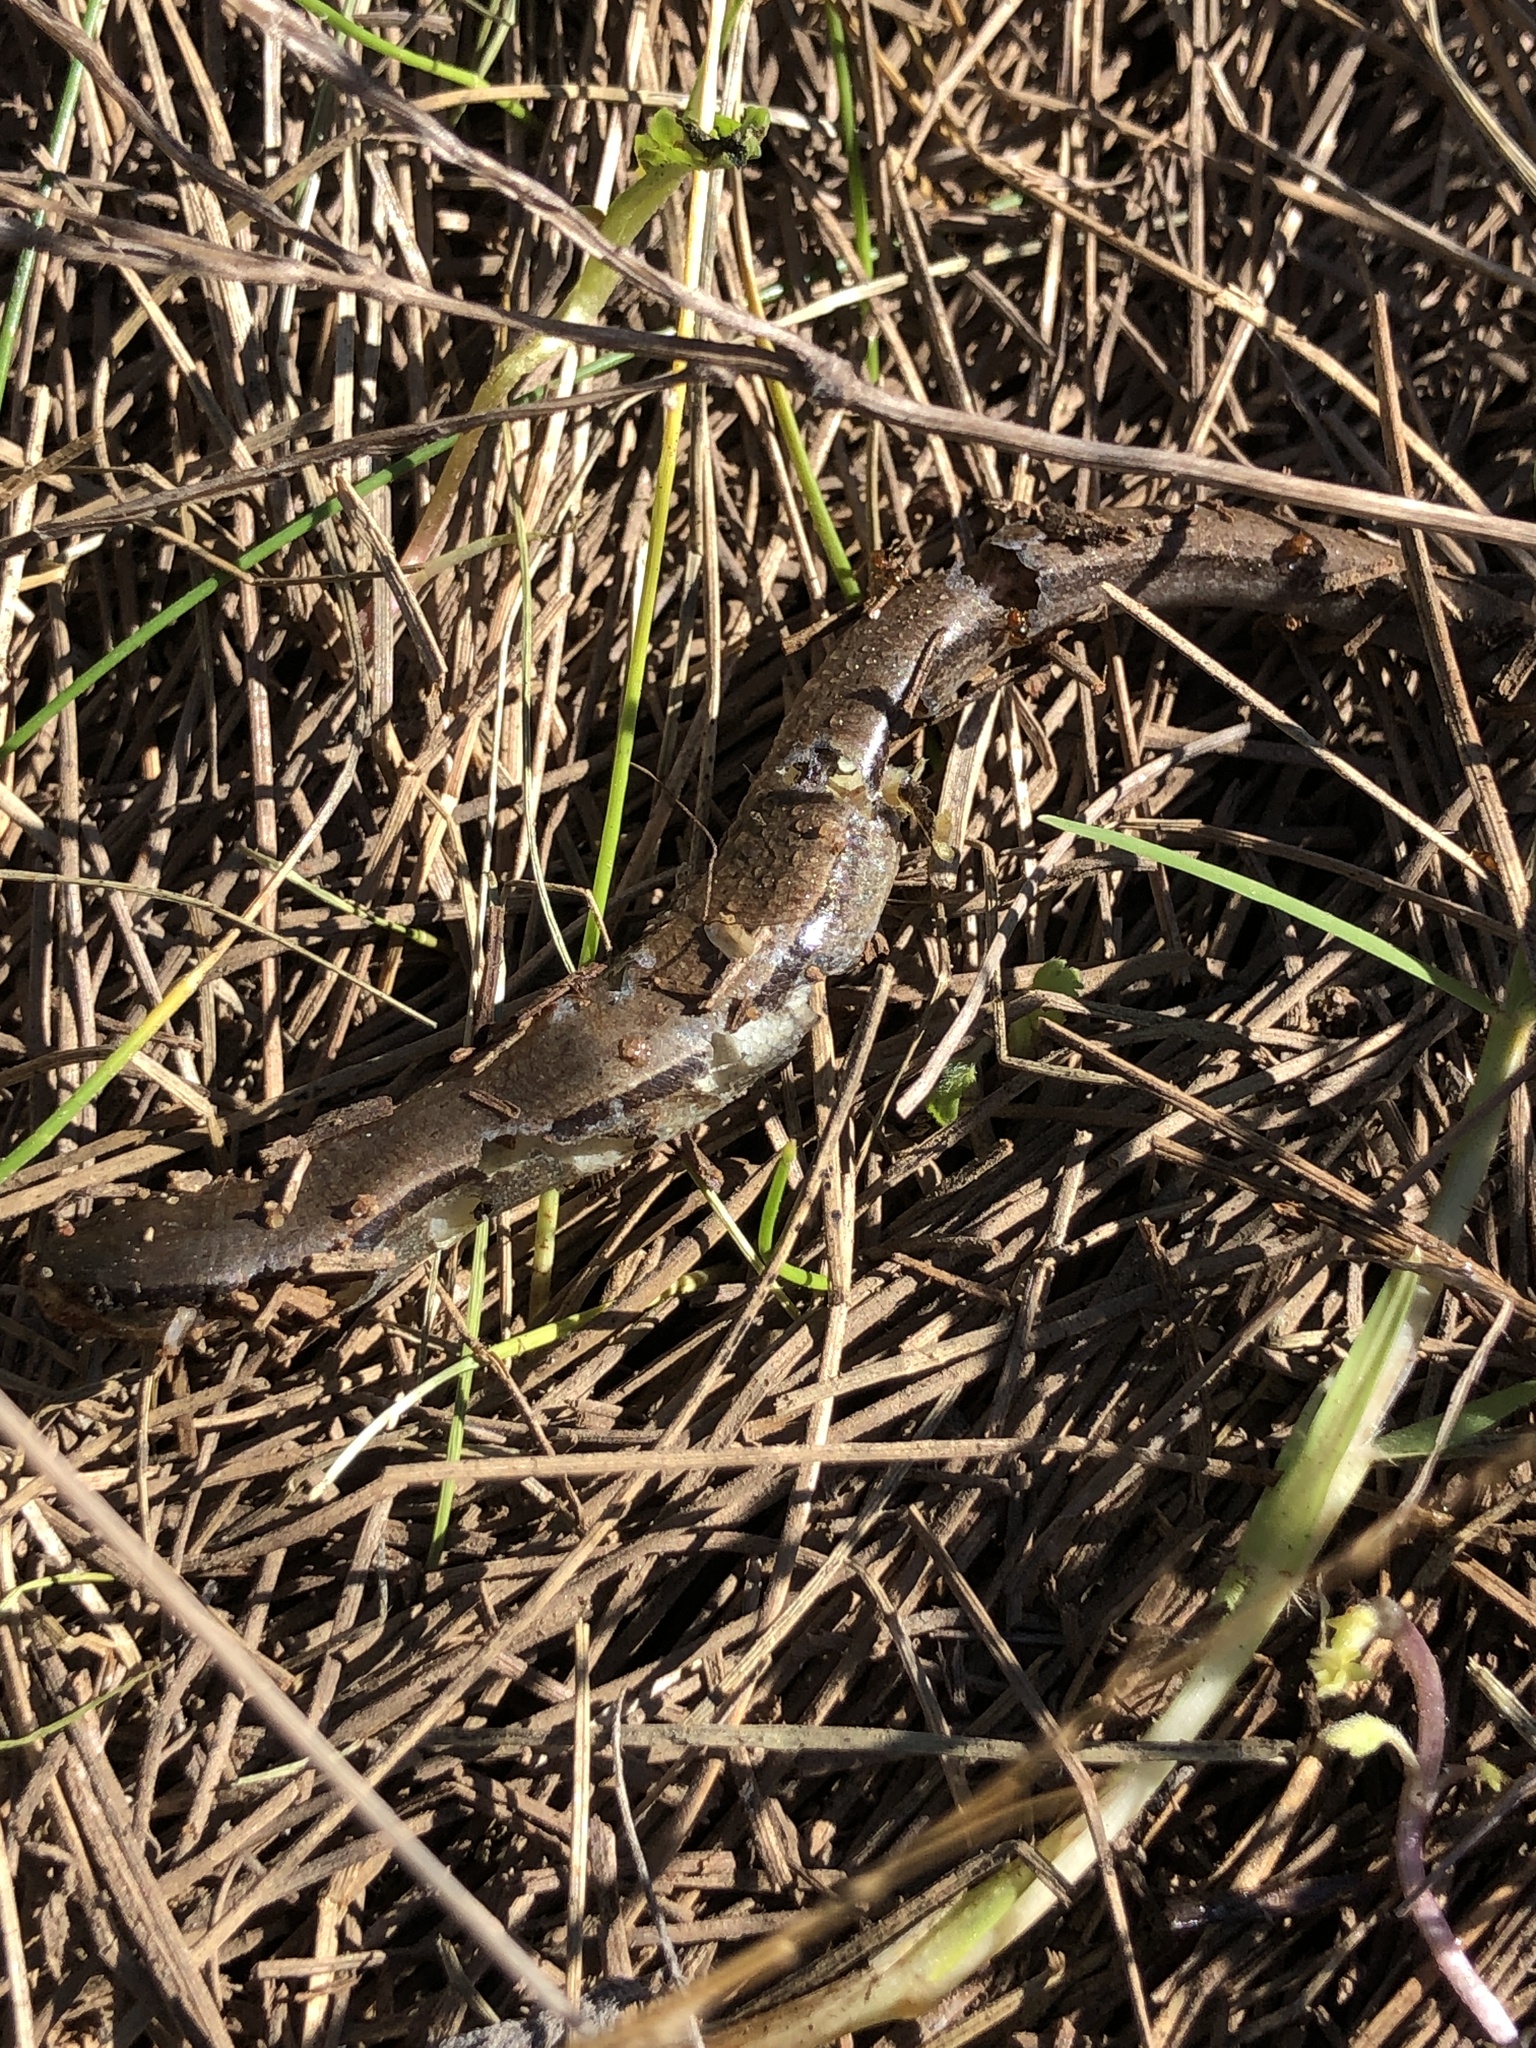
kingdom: Animalia
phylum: Chordata
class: Squamata
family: Scincidae
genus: Scincella
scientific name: Scincella lateralis
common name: Ground skink
